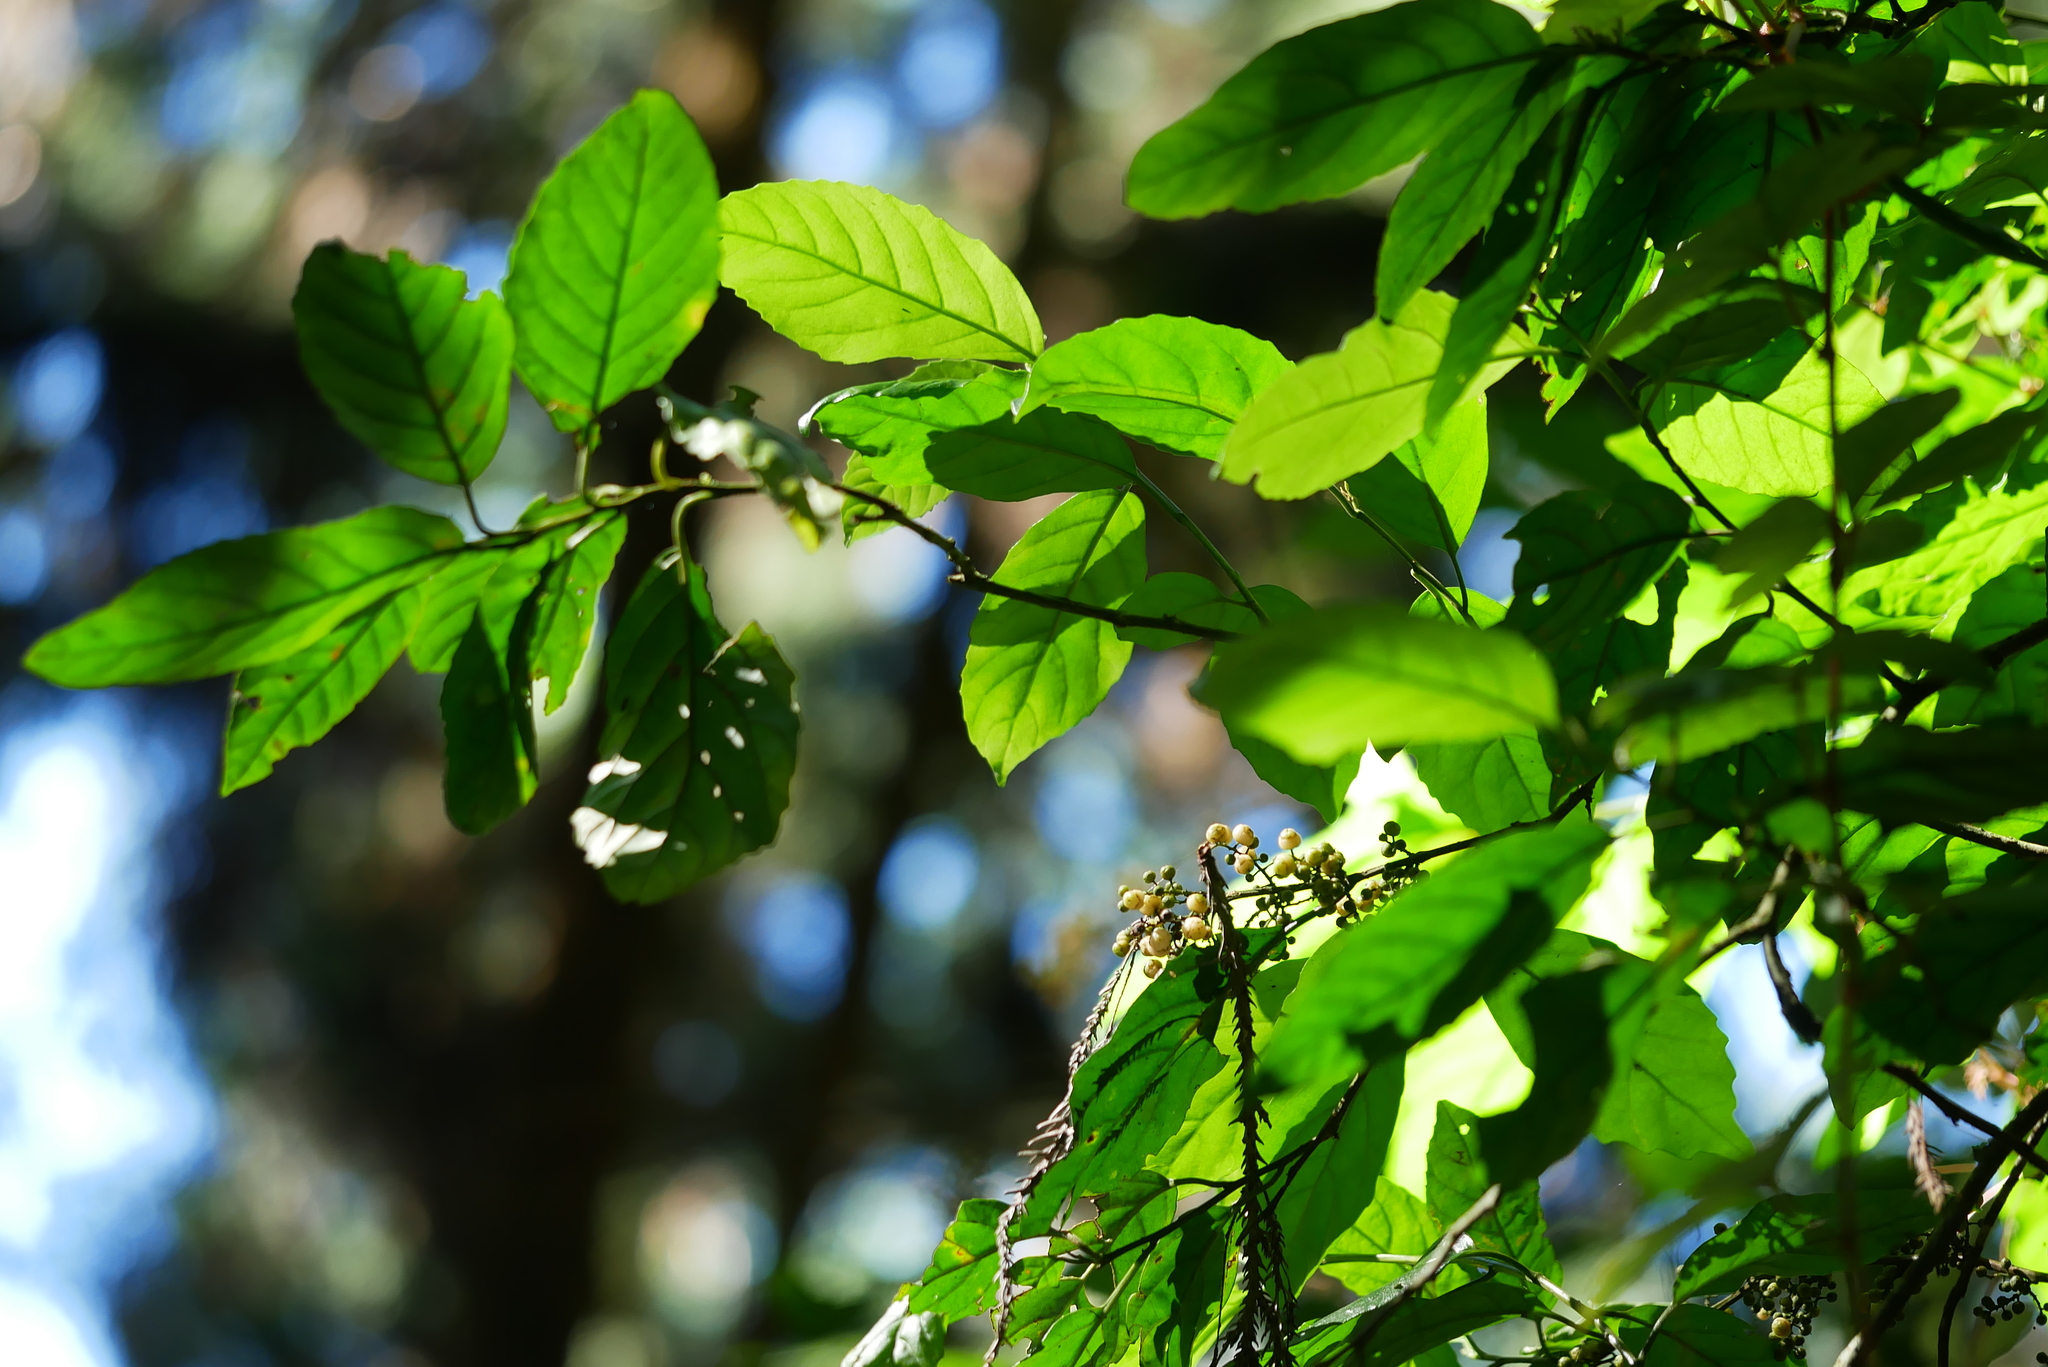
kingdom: Plantae
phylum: Tracheophyta
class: Magnoliopsida
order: Ericales
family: Primulaceae
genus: Maesa
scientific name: Maesa perlaria
